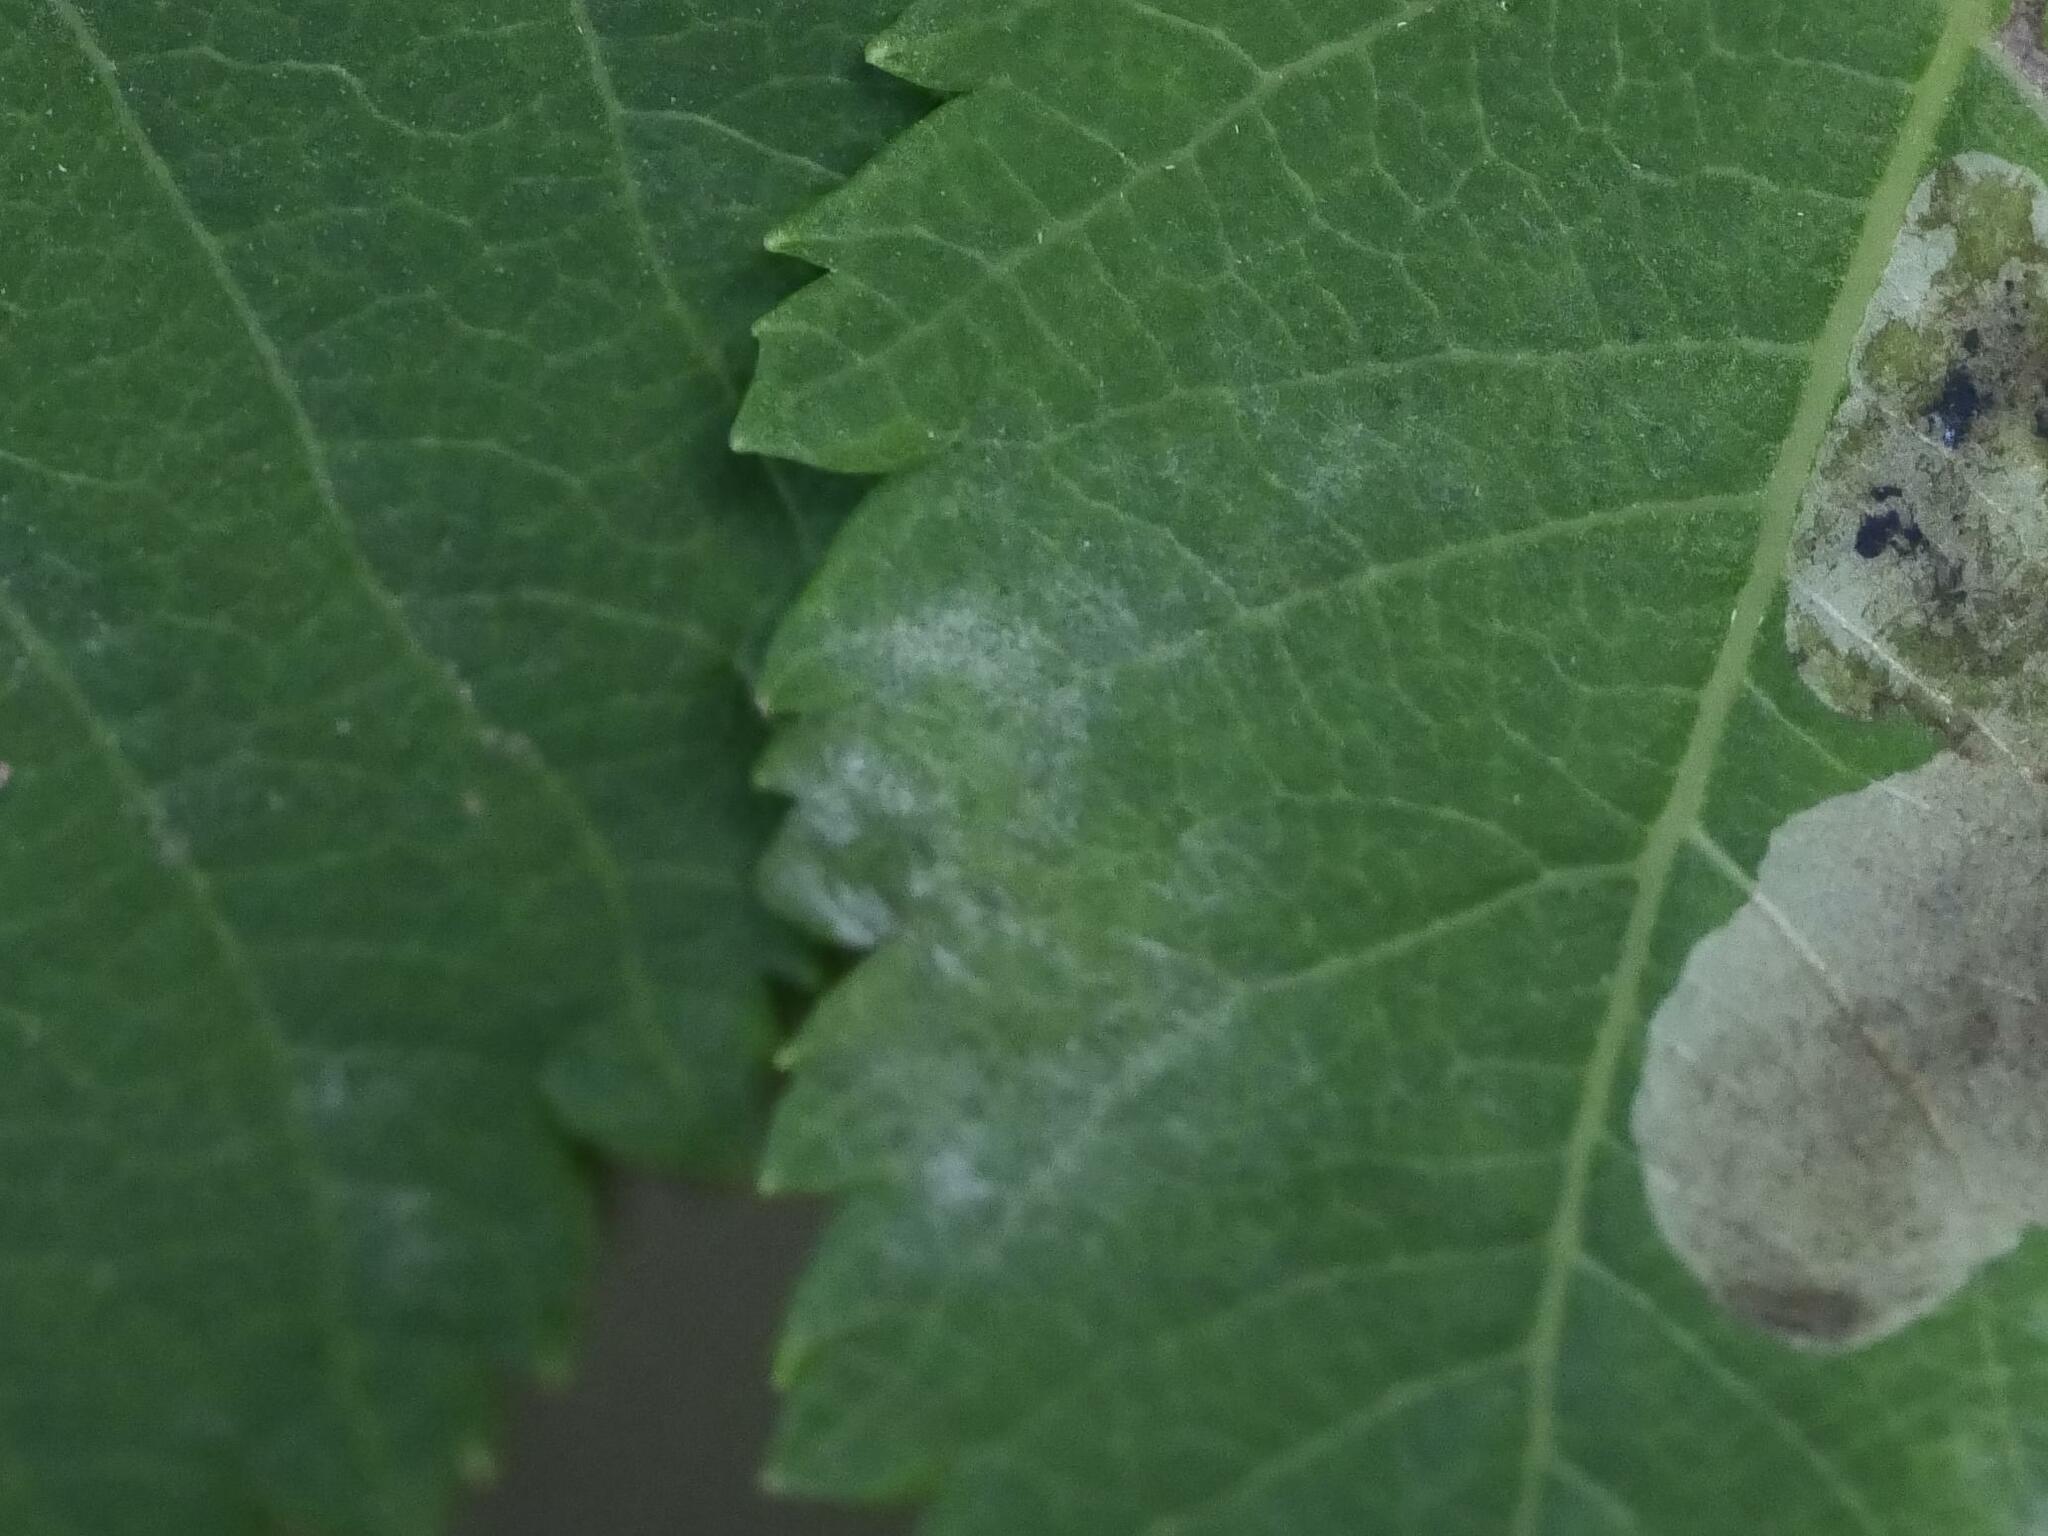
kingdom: Fungi
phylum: Ascomycota
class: Leotiomycetes
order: Helotiales
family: Erysiphaceae
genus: Podosphaera
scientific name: Podosphaera minor
